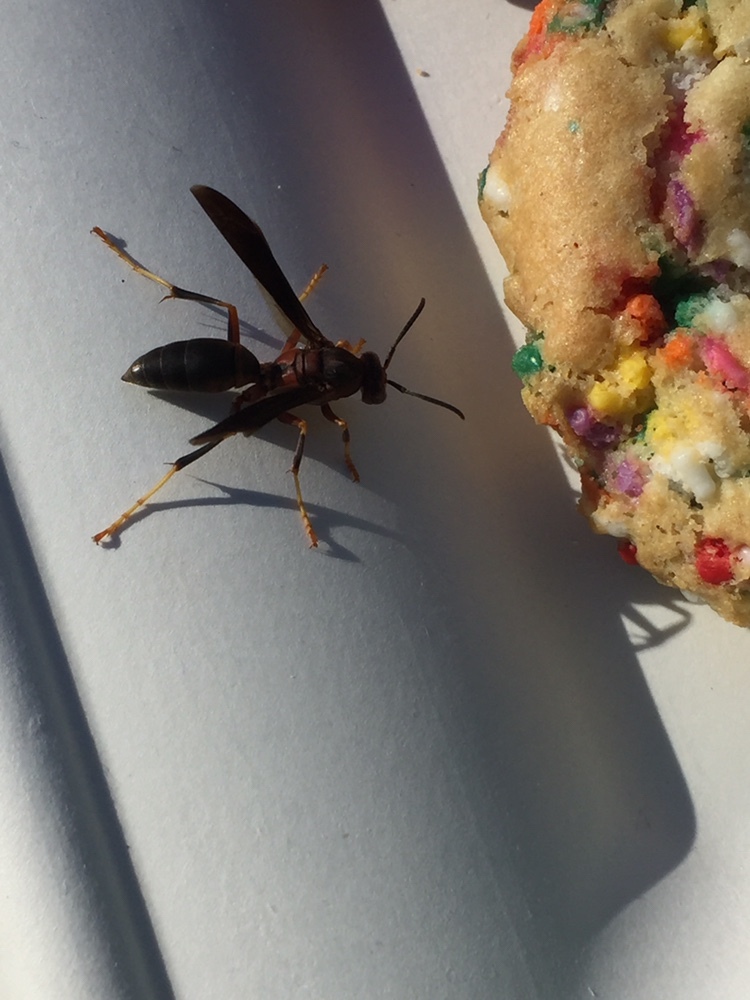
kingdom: Animalia
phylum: Arthropoda
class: Insecta
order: Hymenoptera
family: Eumenidae
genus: Polistes
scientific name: Polistes metricus
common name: Metric paper wasp
